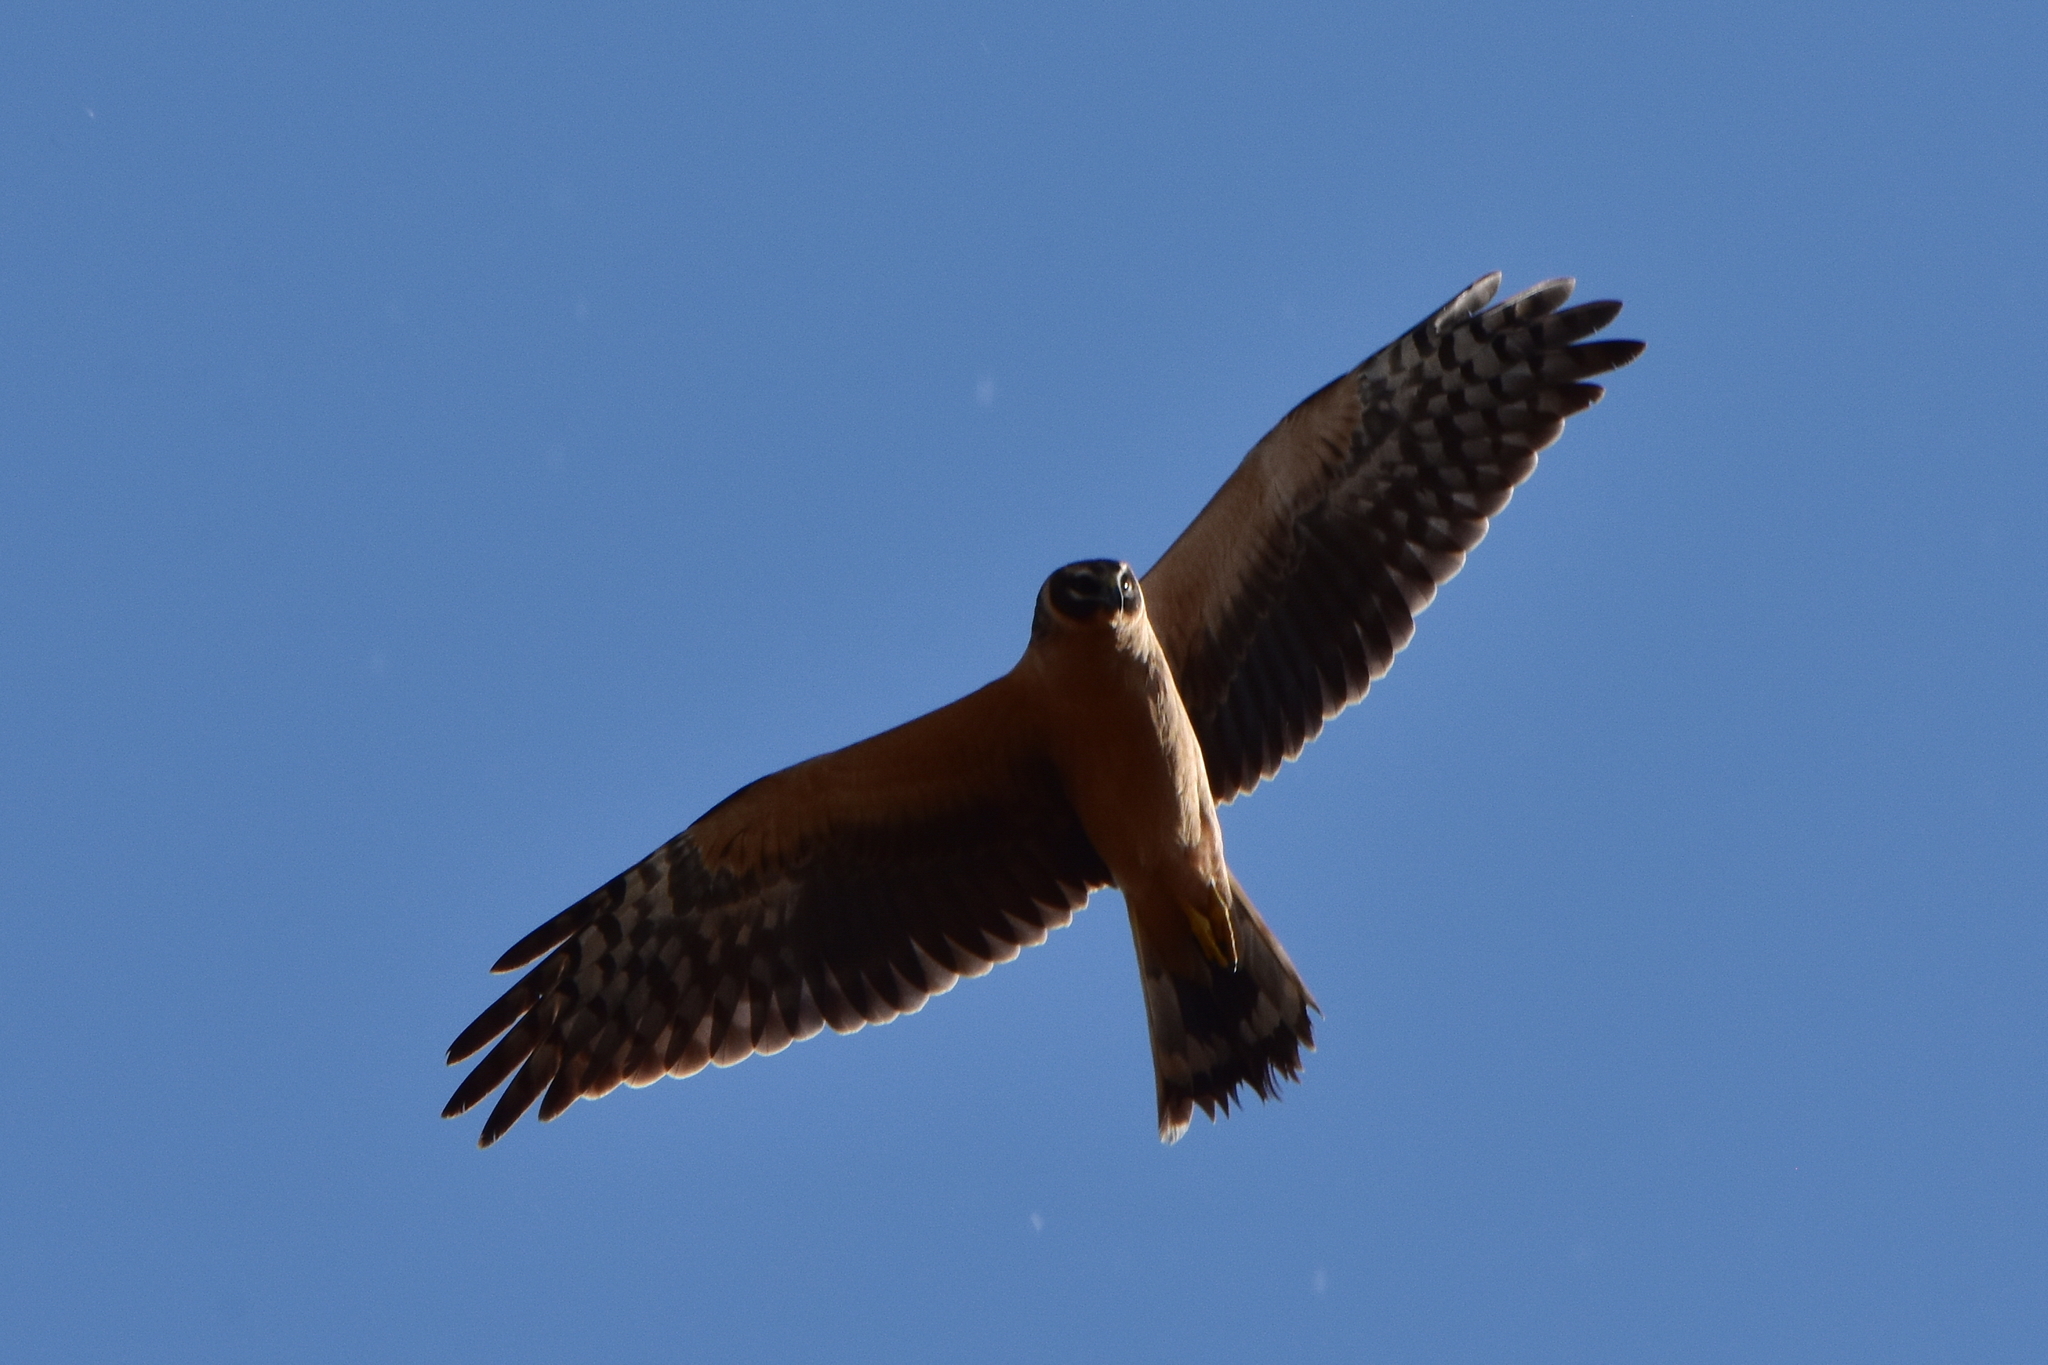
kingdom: Animalia
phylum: Chordata
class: Aves
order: Accipitriformes
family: Accipitridae
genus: Circus
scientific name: Circus macrourus
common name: Pallid harrier
